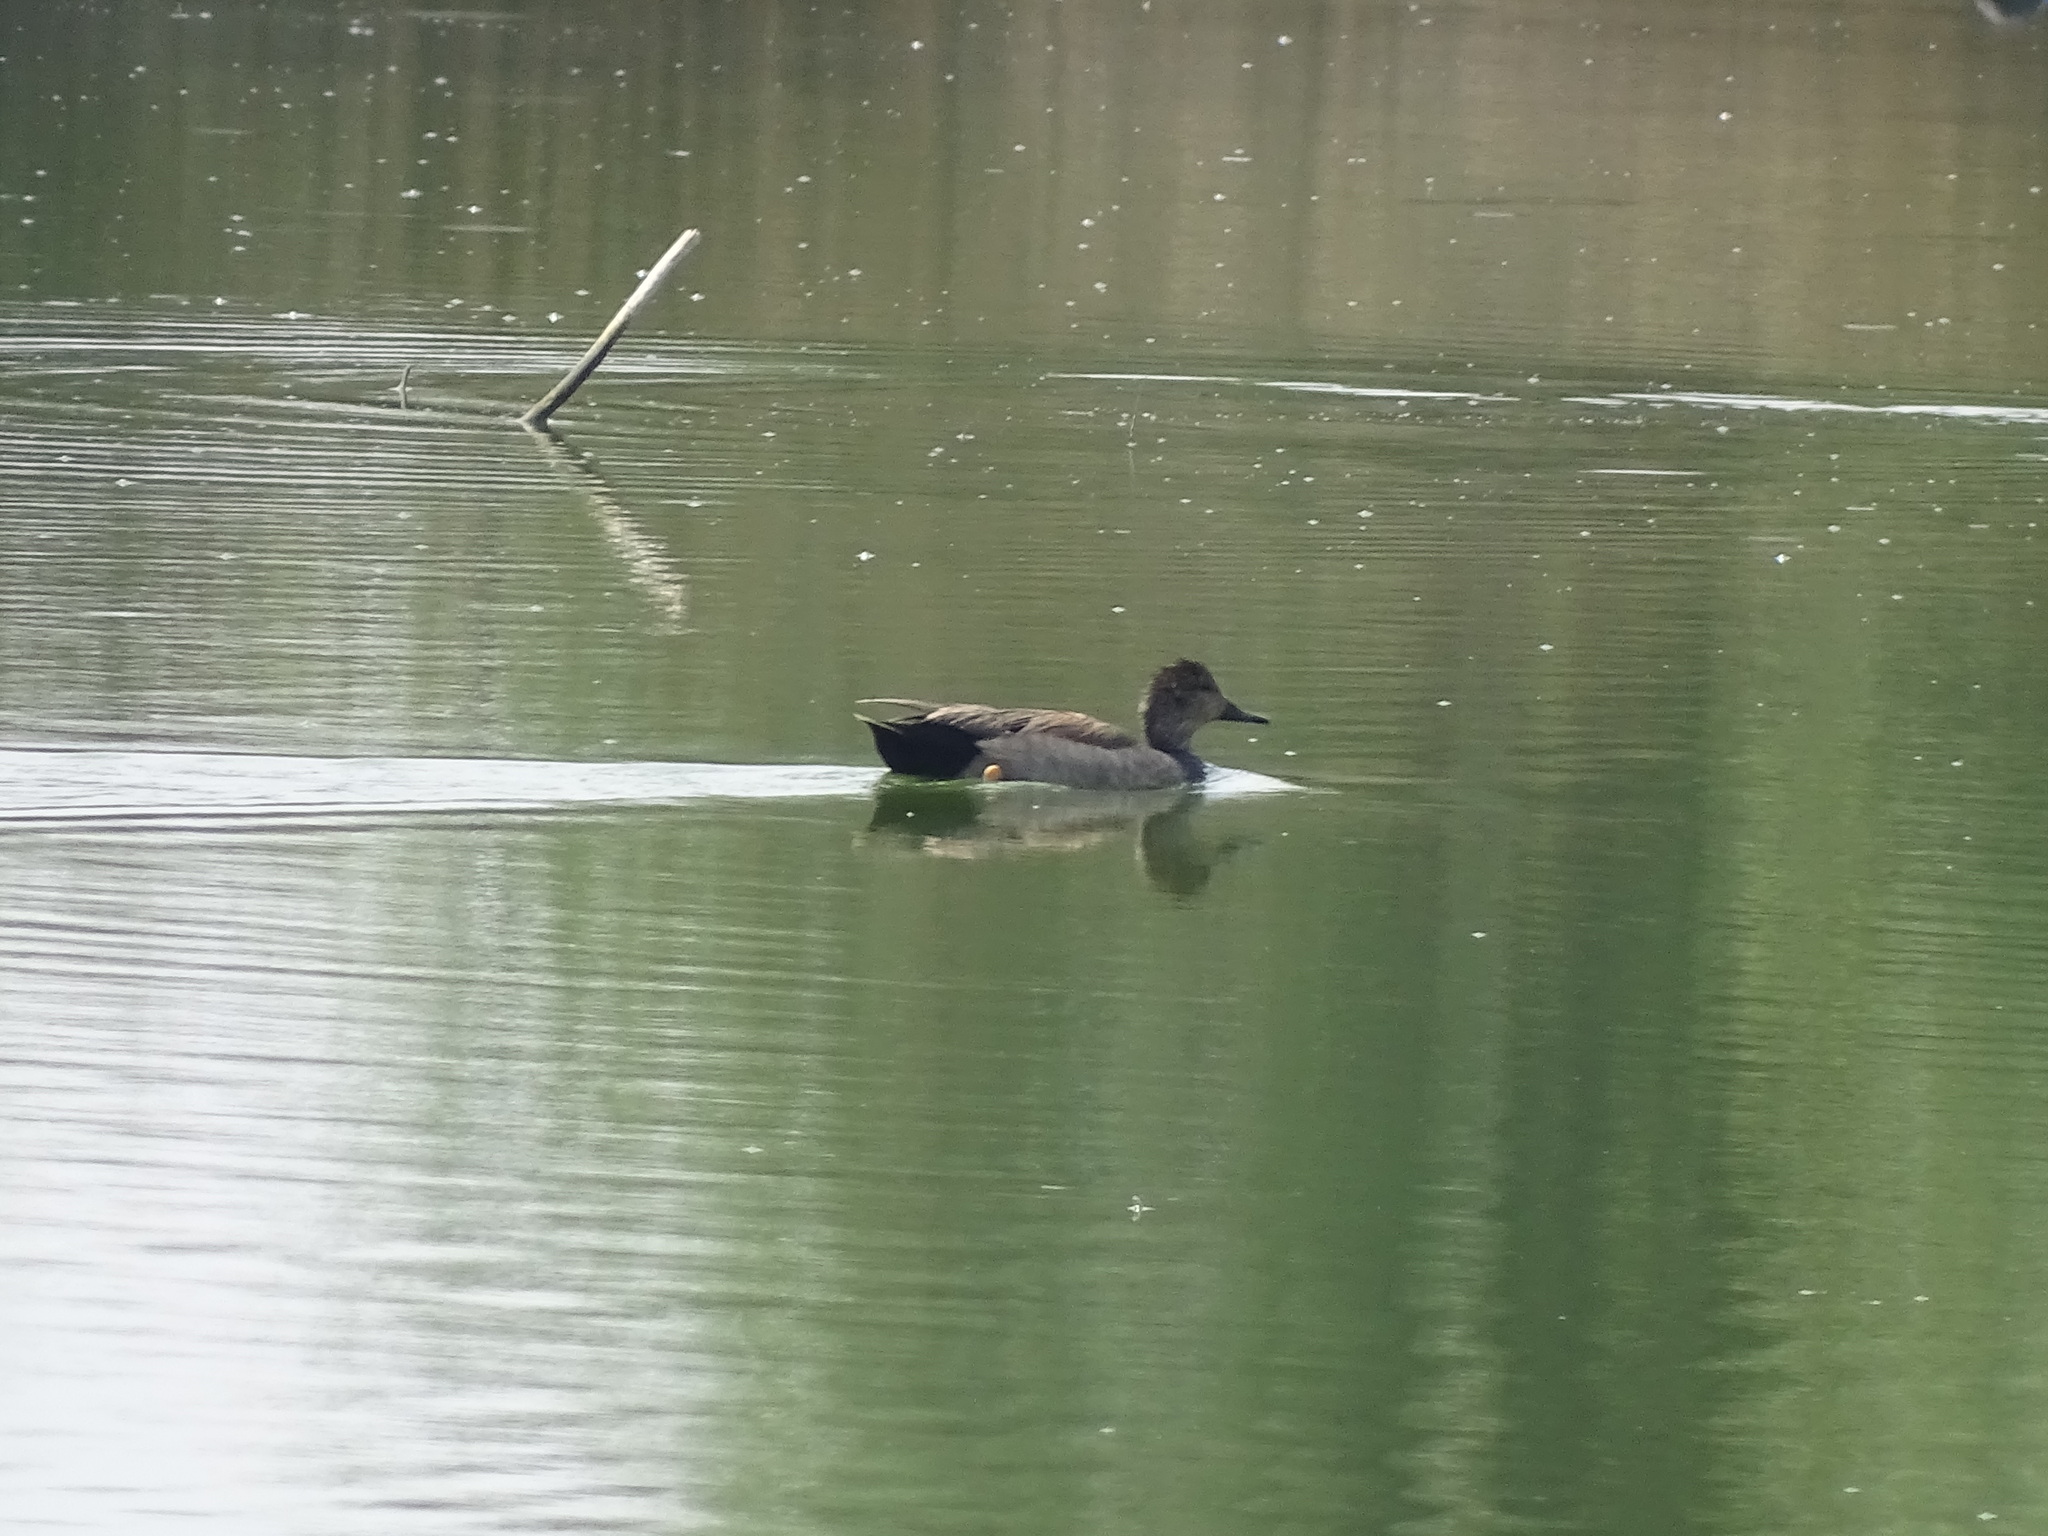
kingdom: Animalia
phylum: Chordata
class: Aves
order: Anseriformes
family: Anatidae
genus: Mareca
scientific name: Mareca strepera
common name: Gadwall
